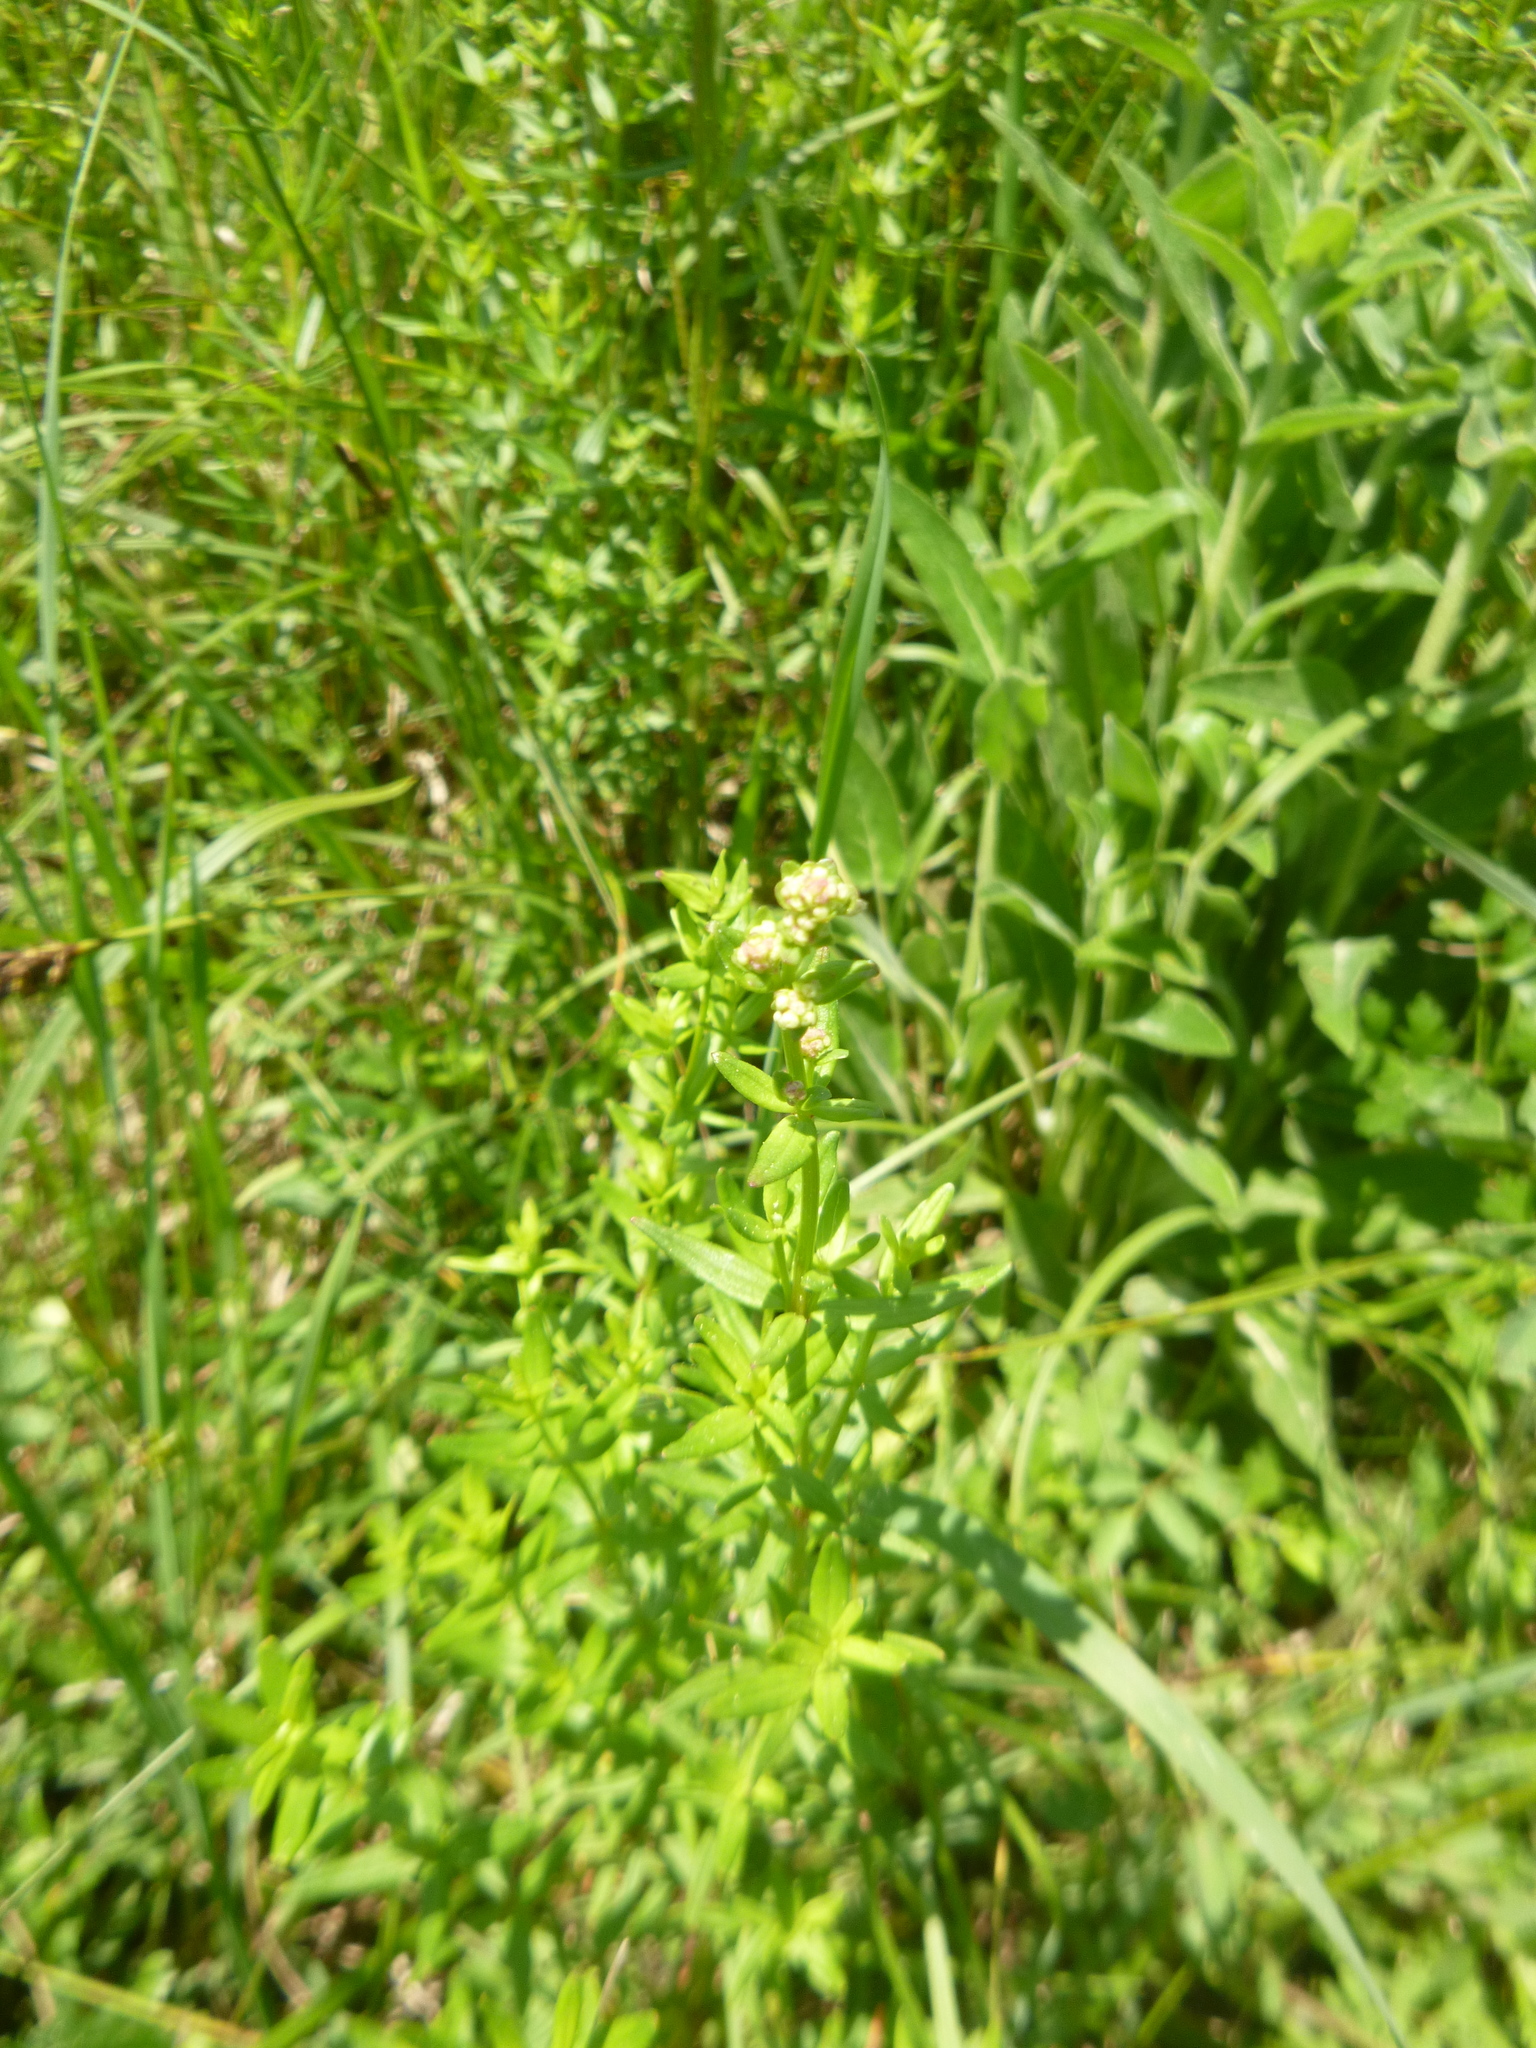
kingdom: Plantae
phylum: Tracheophyta
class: Magnoliopsida
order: Gentianales
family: Rubiaceae
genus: Galium
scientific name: Galium boreale
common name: Northern bedstraw
